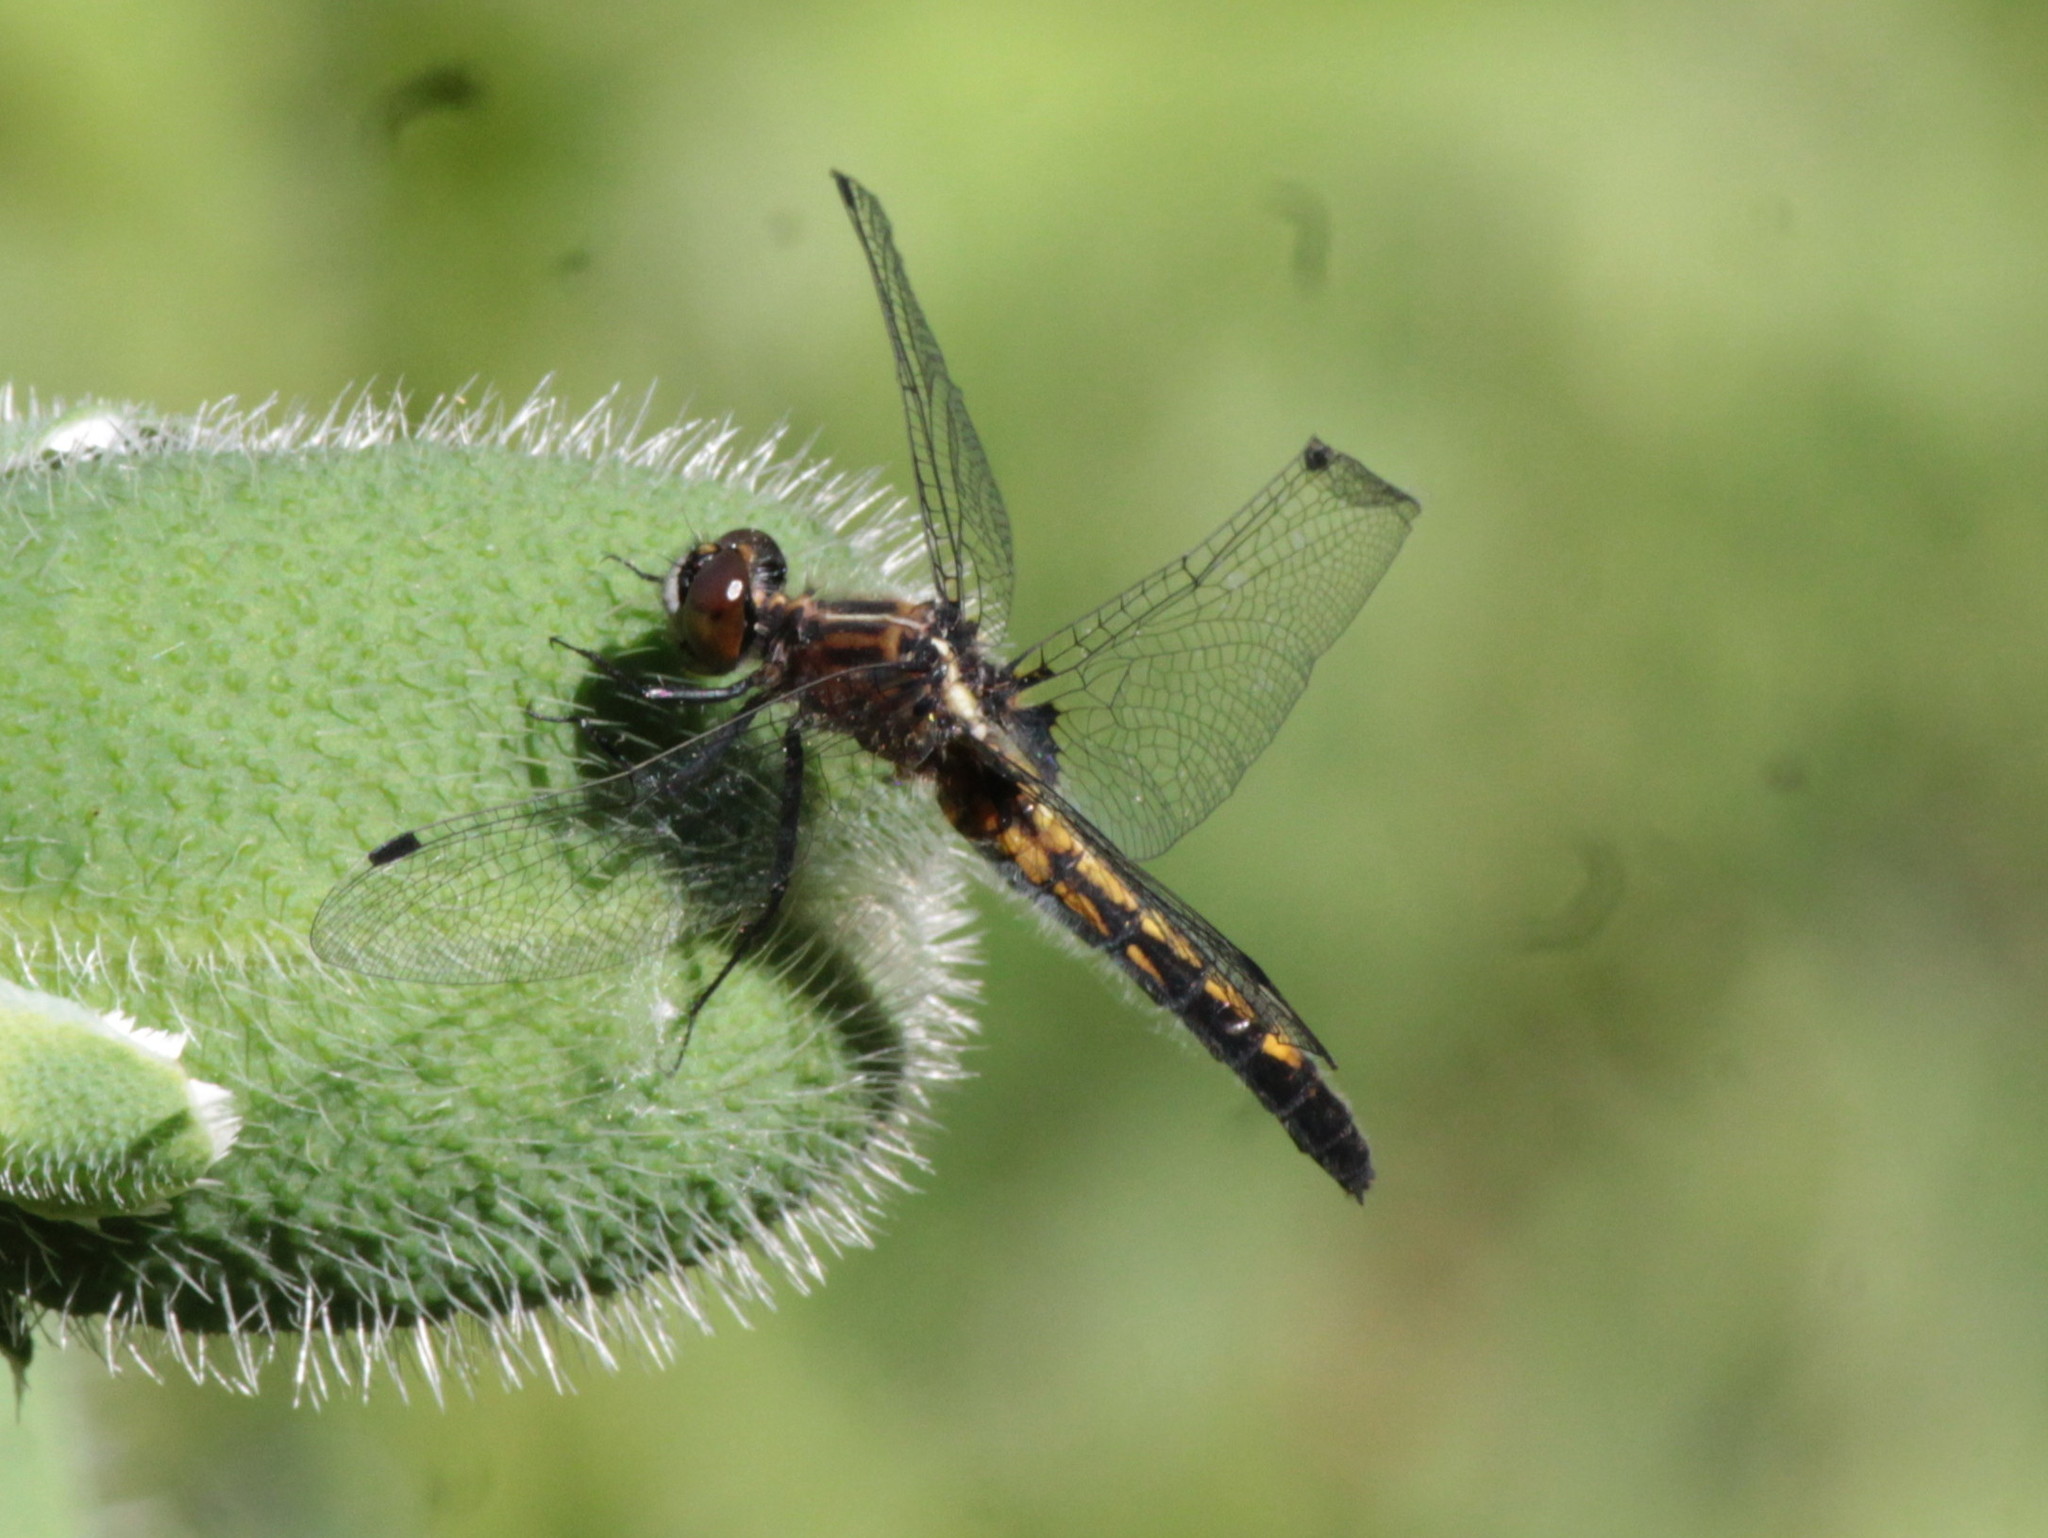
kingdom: Animalia
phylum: Arthropoda
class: Insecta
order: Odonata
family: Libellulidae
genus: Leucorrhinia
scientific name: Leucorrhinia intacta
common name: Dot-tailed whiteface
